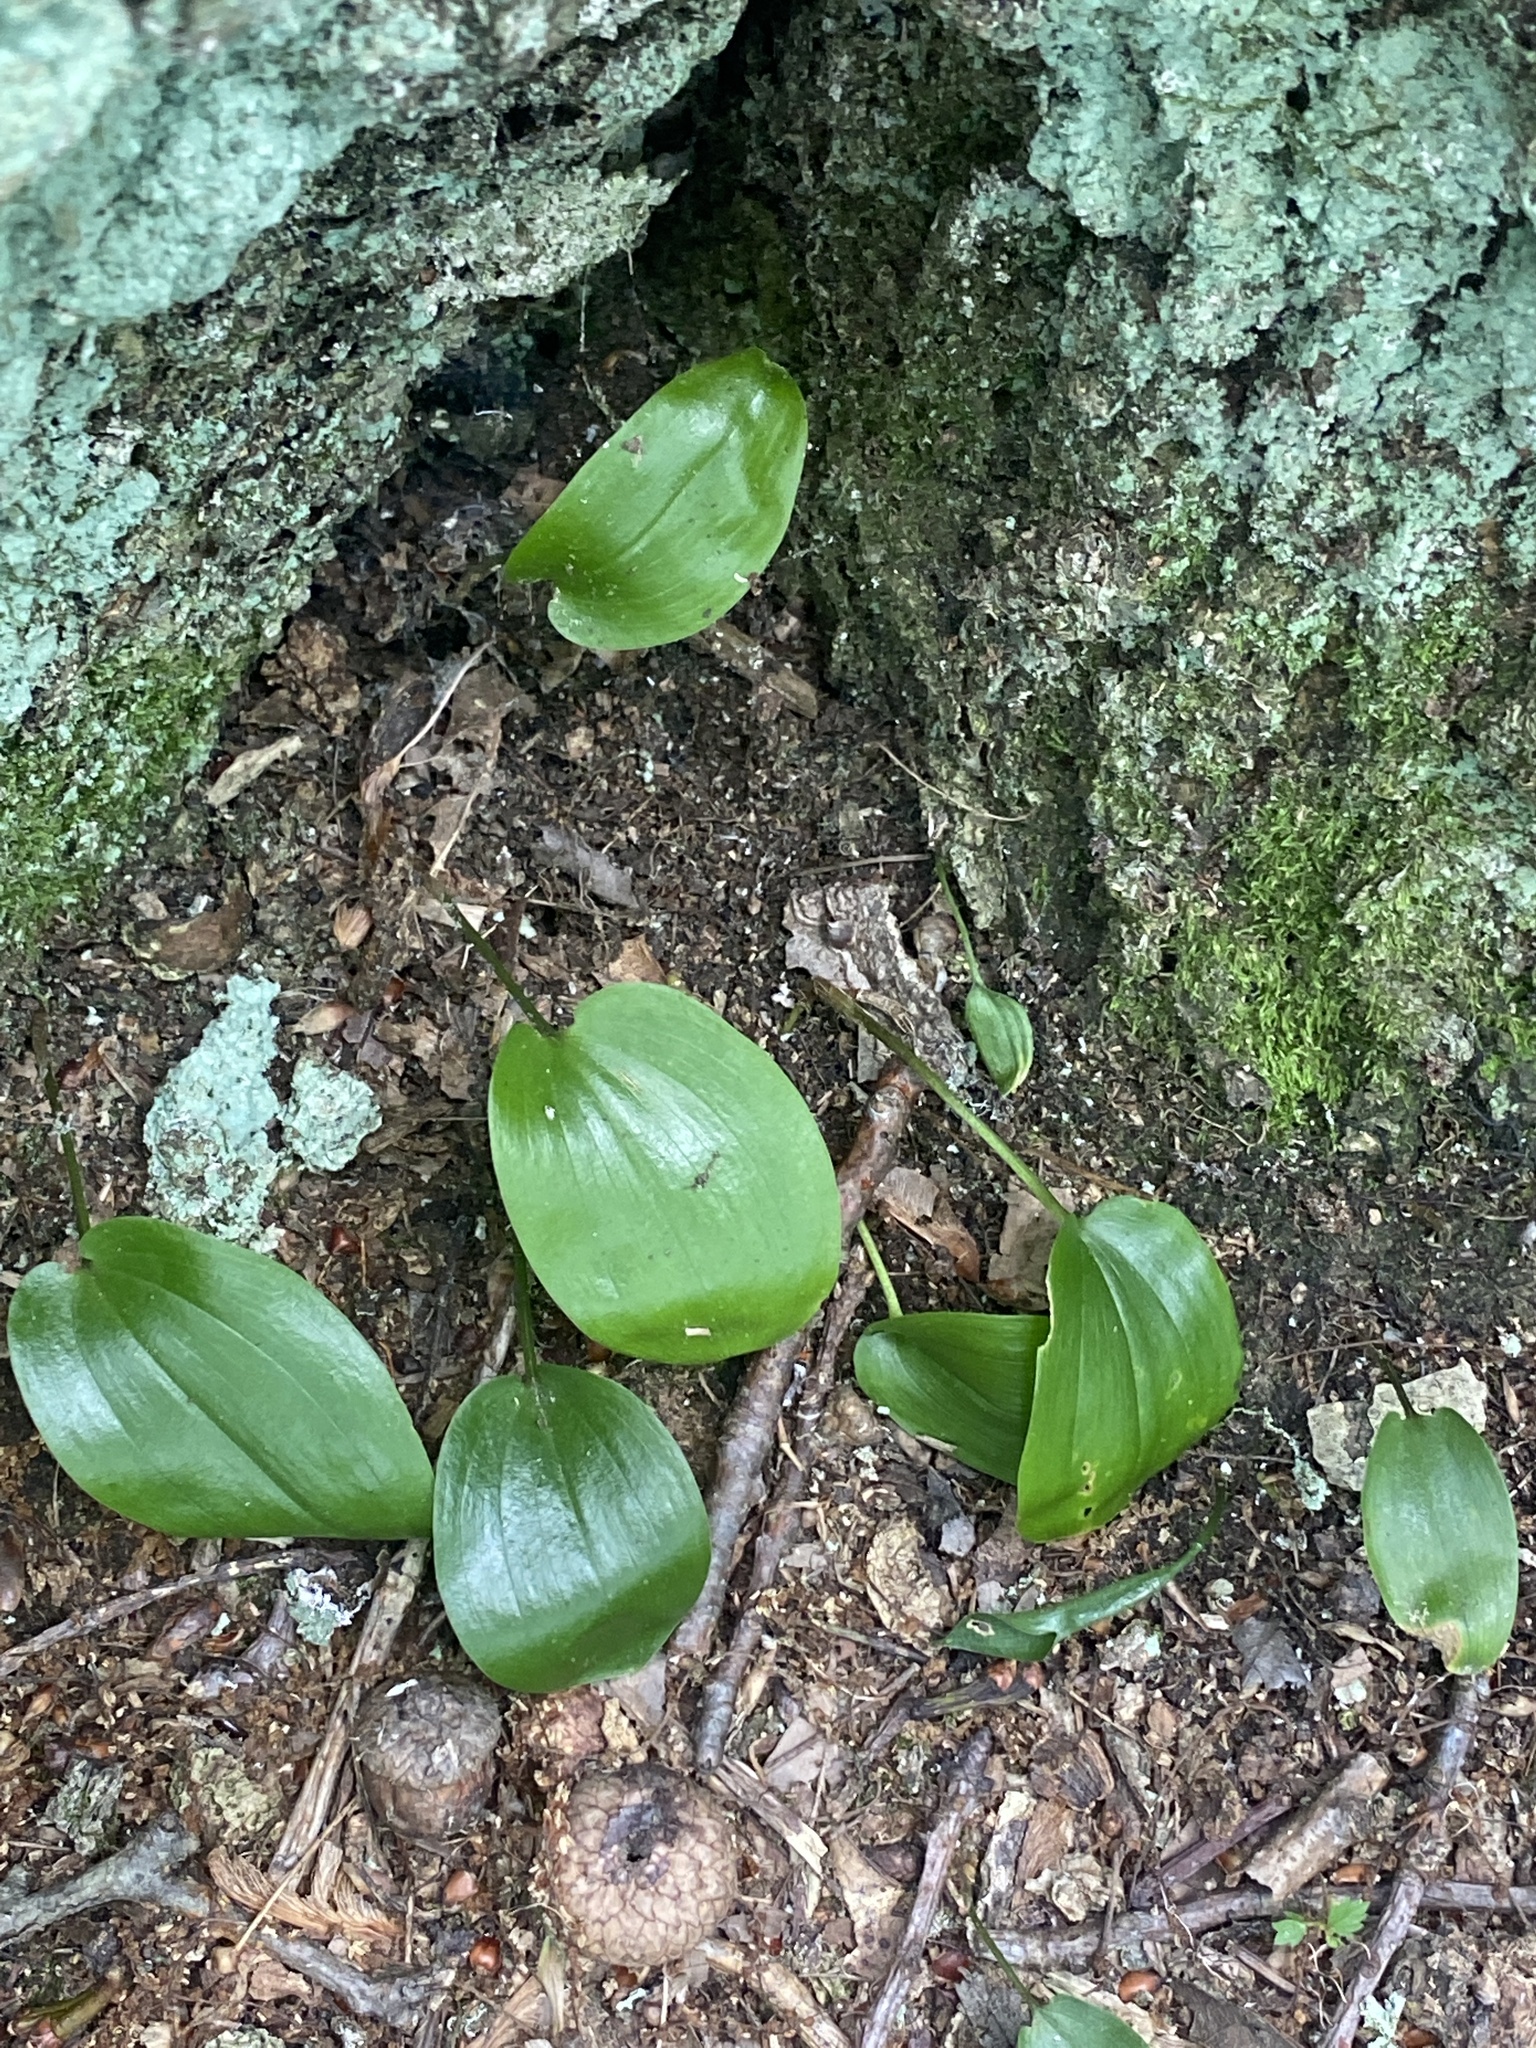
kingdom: Plantae
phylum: Tracheophyta
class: Liliopsida
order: Asparagales
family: Asparagaceae
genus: Maianthemum
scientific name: Maianthemum canadense
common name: False lily-of-the-valley
